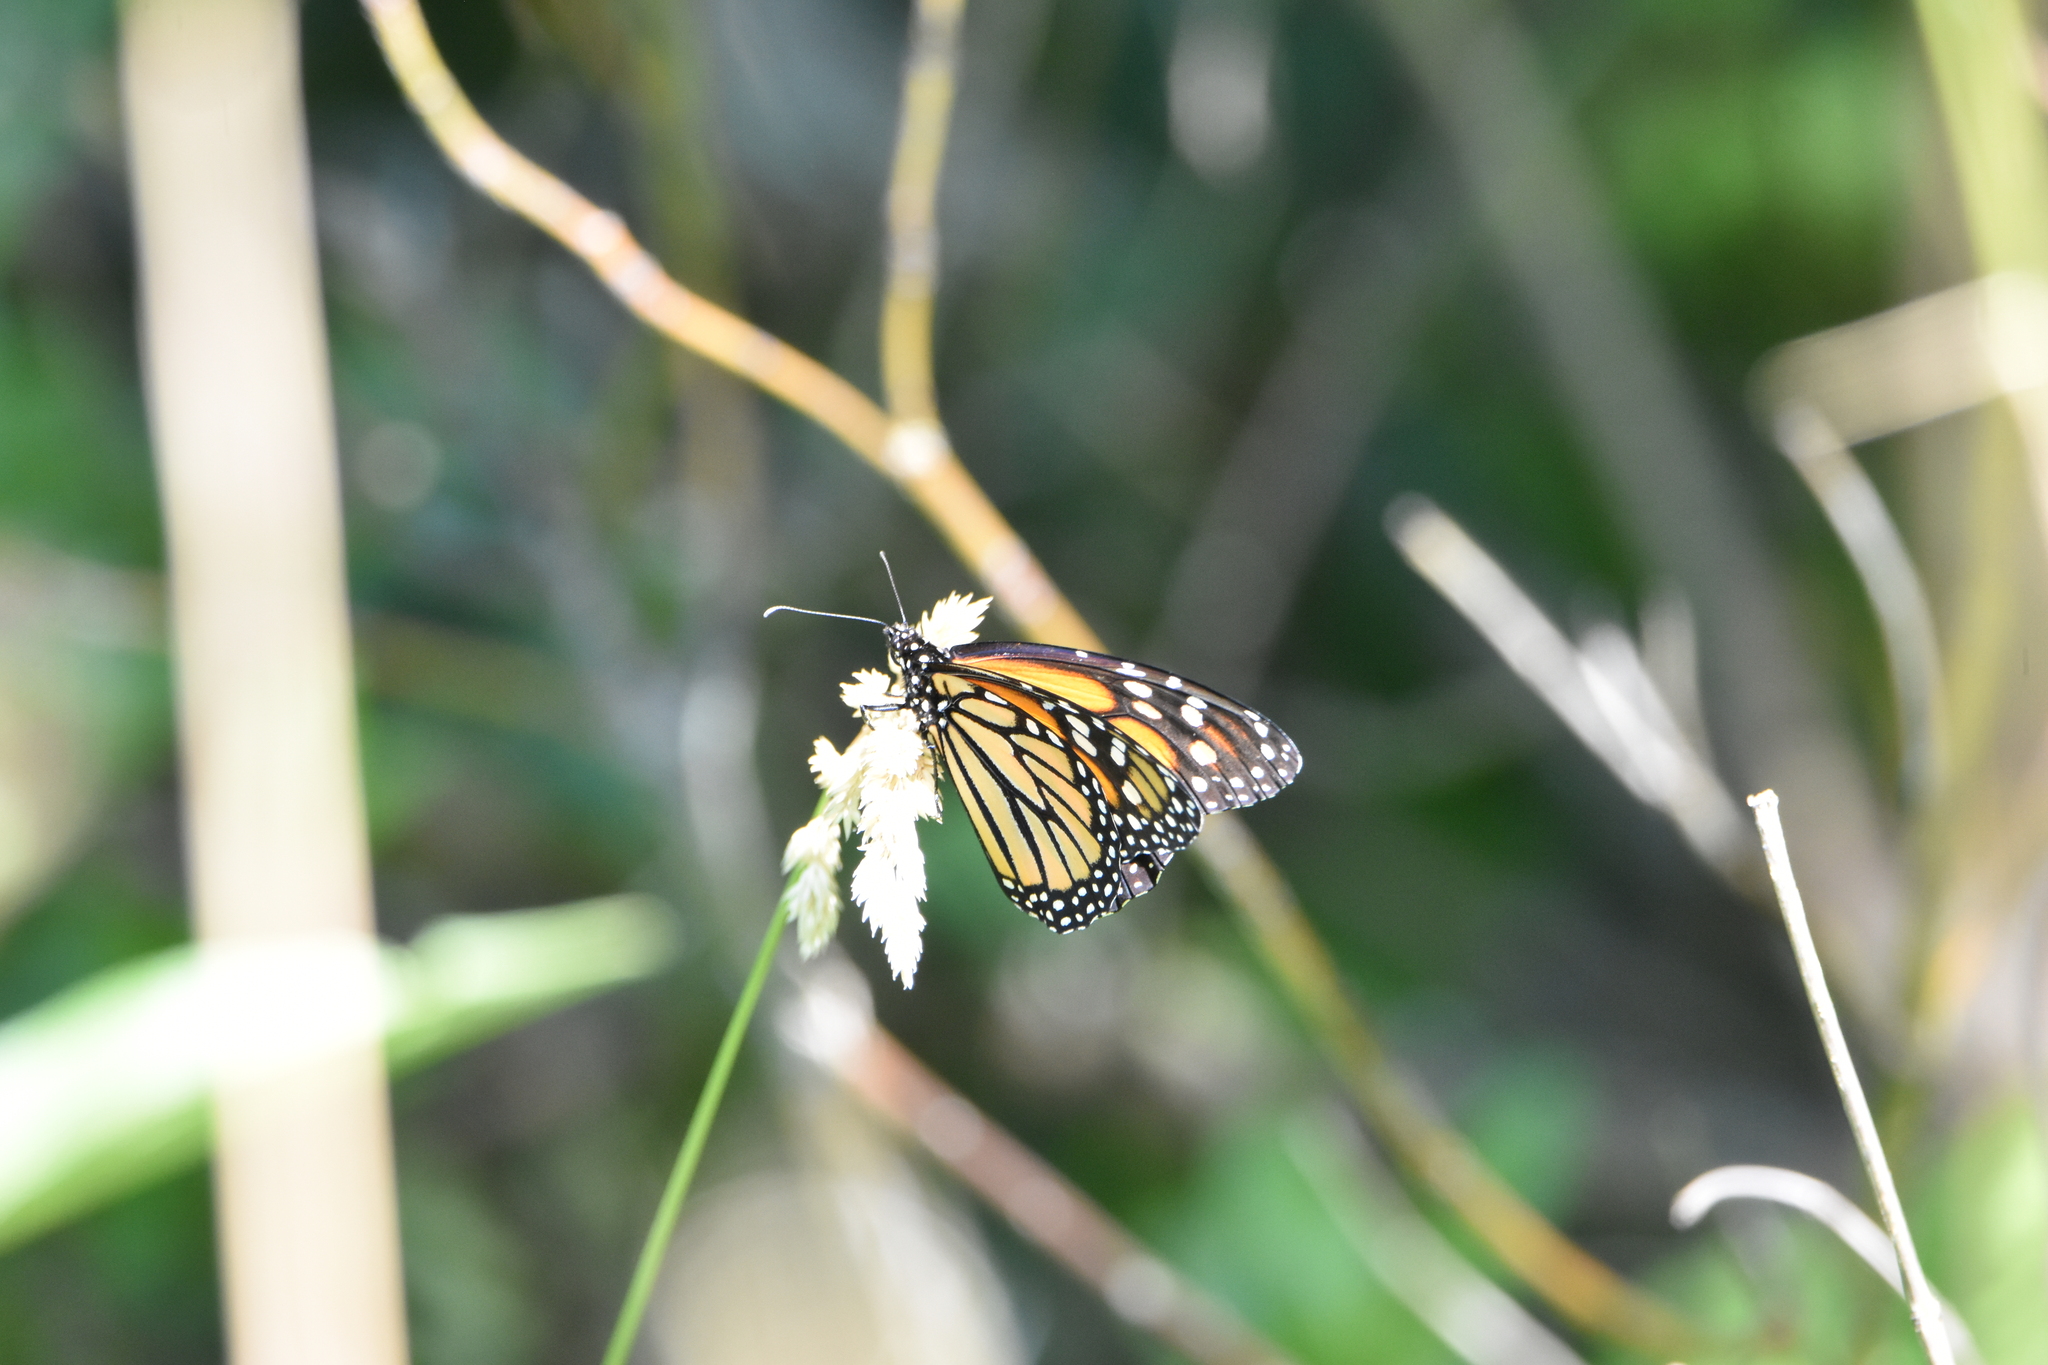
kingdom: Animalia
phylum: Arthropoda
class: Insecta
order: Lepidoptera
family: Nymphalidae
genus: Danaus
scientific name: Danaus plexippus
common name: Monarch
